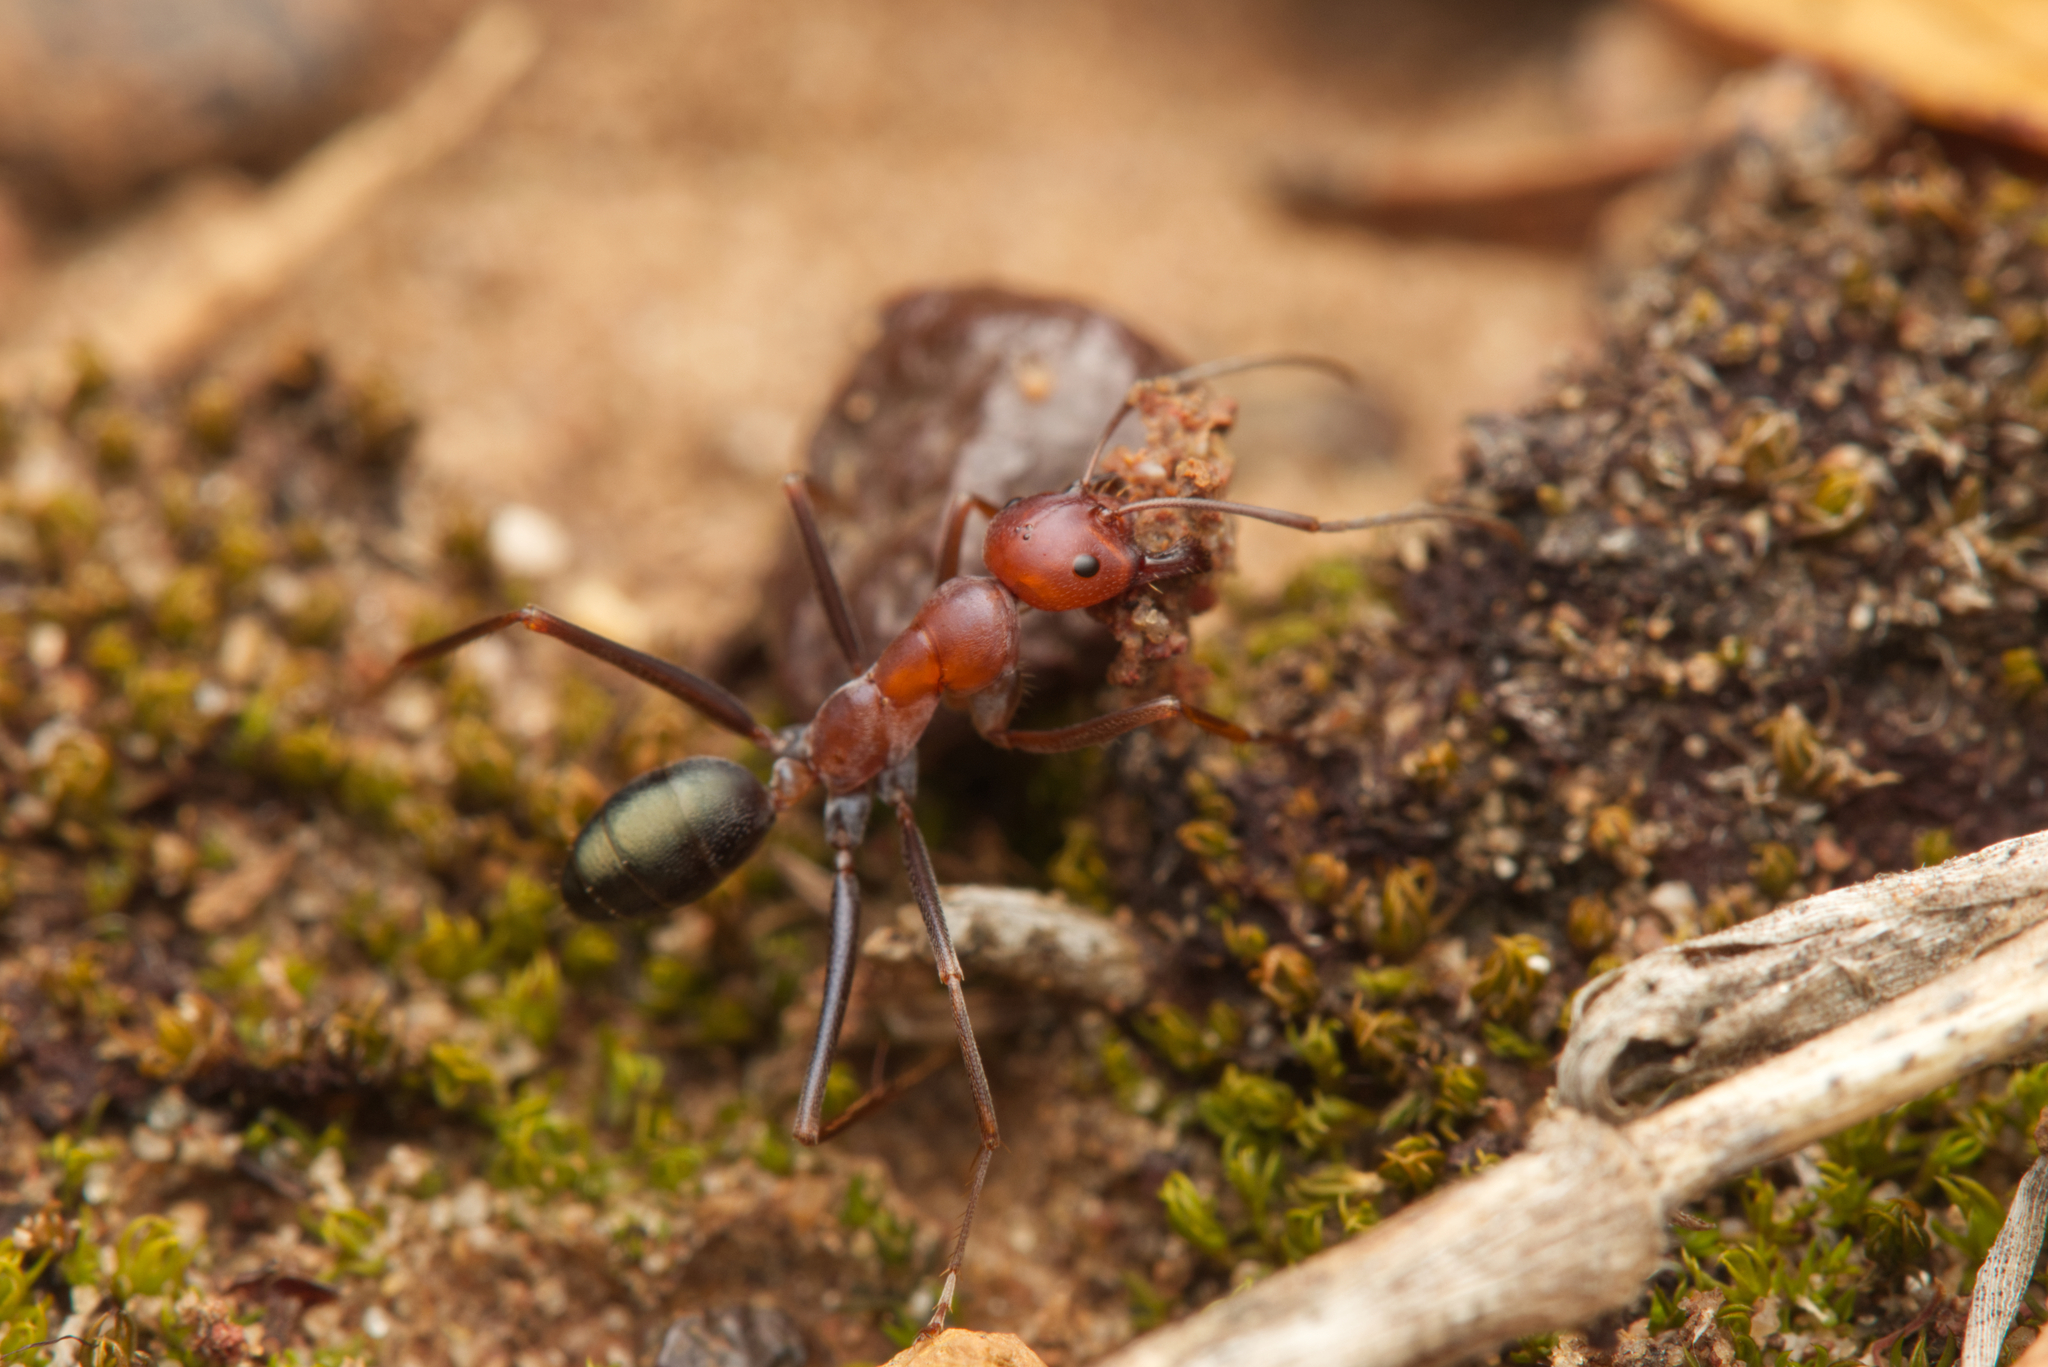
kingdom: Animalia
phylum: Arthropoda
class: Insecta
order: Hymenoptera
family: Formicidae
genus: Melophorus
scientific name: Melophorus rufoniger
